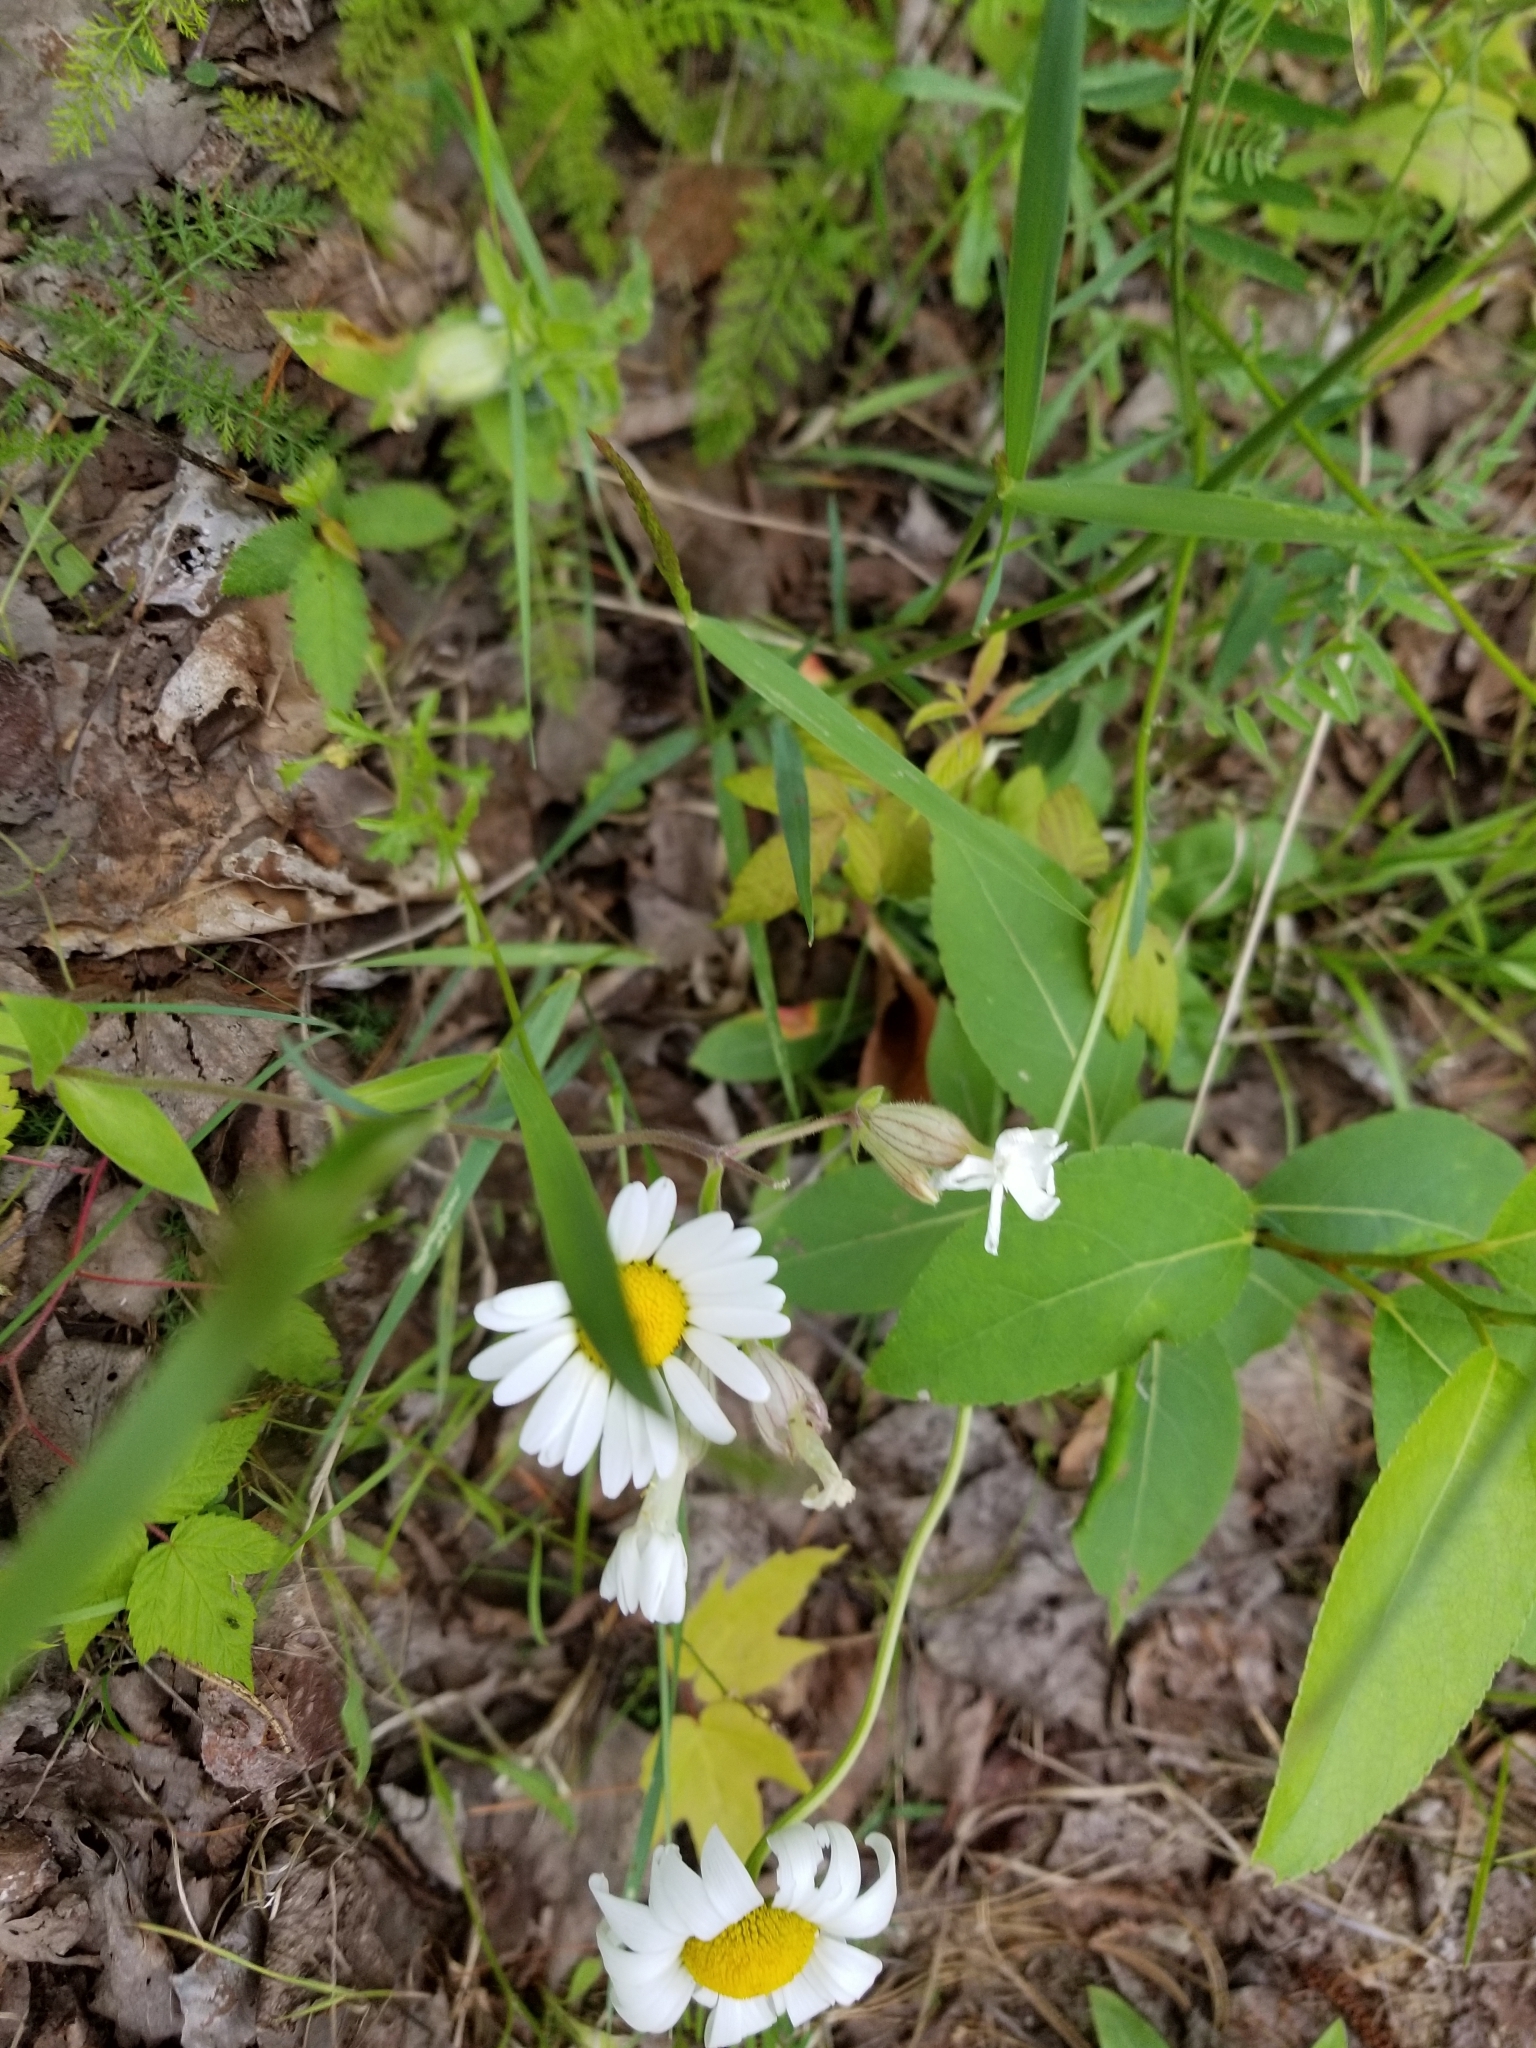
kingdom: Plantae
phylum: Tracheophyta
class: Magnoliopsida
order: Asterales
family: Asteraceae
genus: Leucanthemum
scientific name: Leucanthemum vulgare
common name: Oxeye daisy
